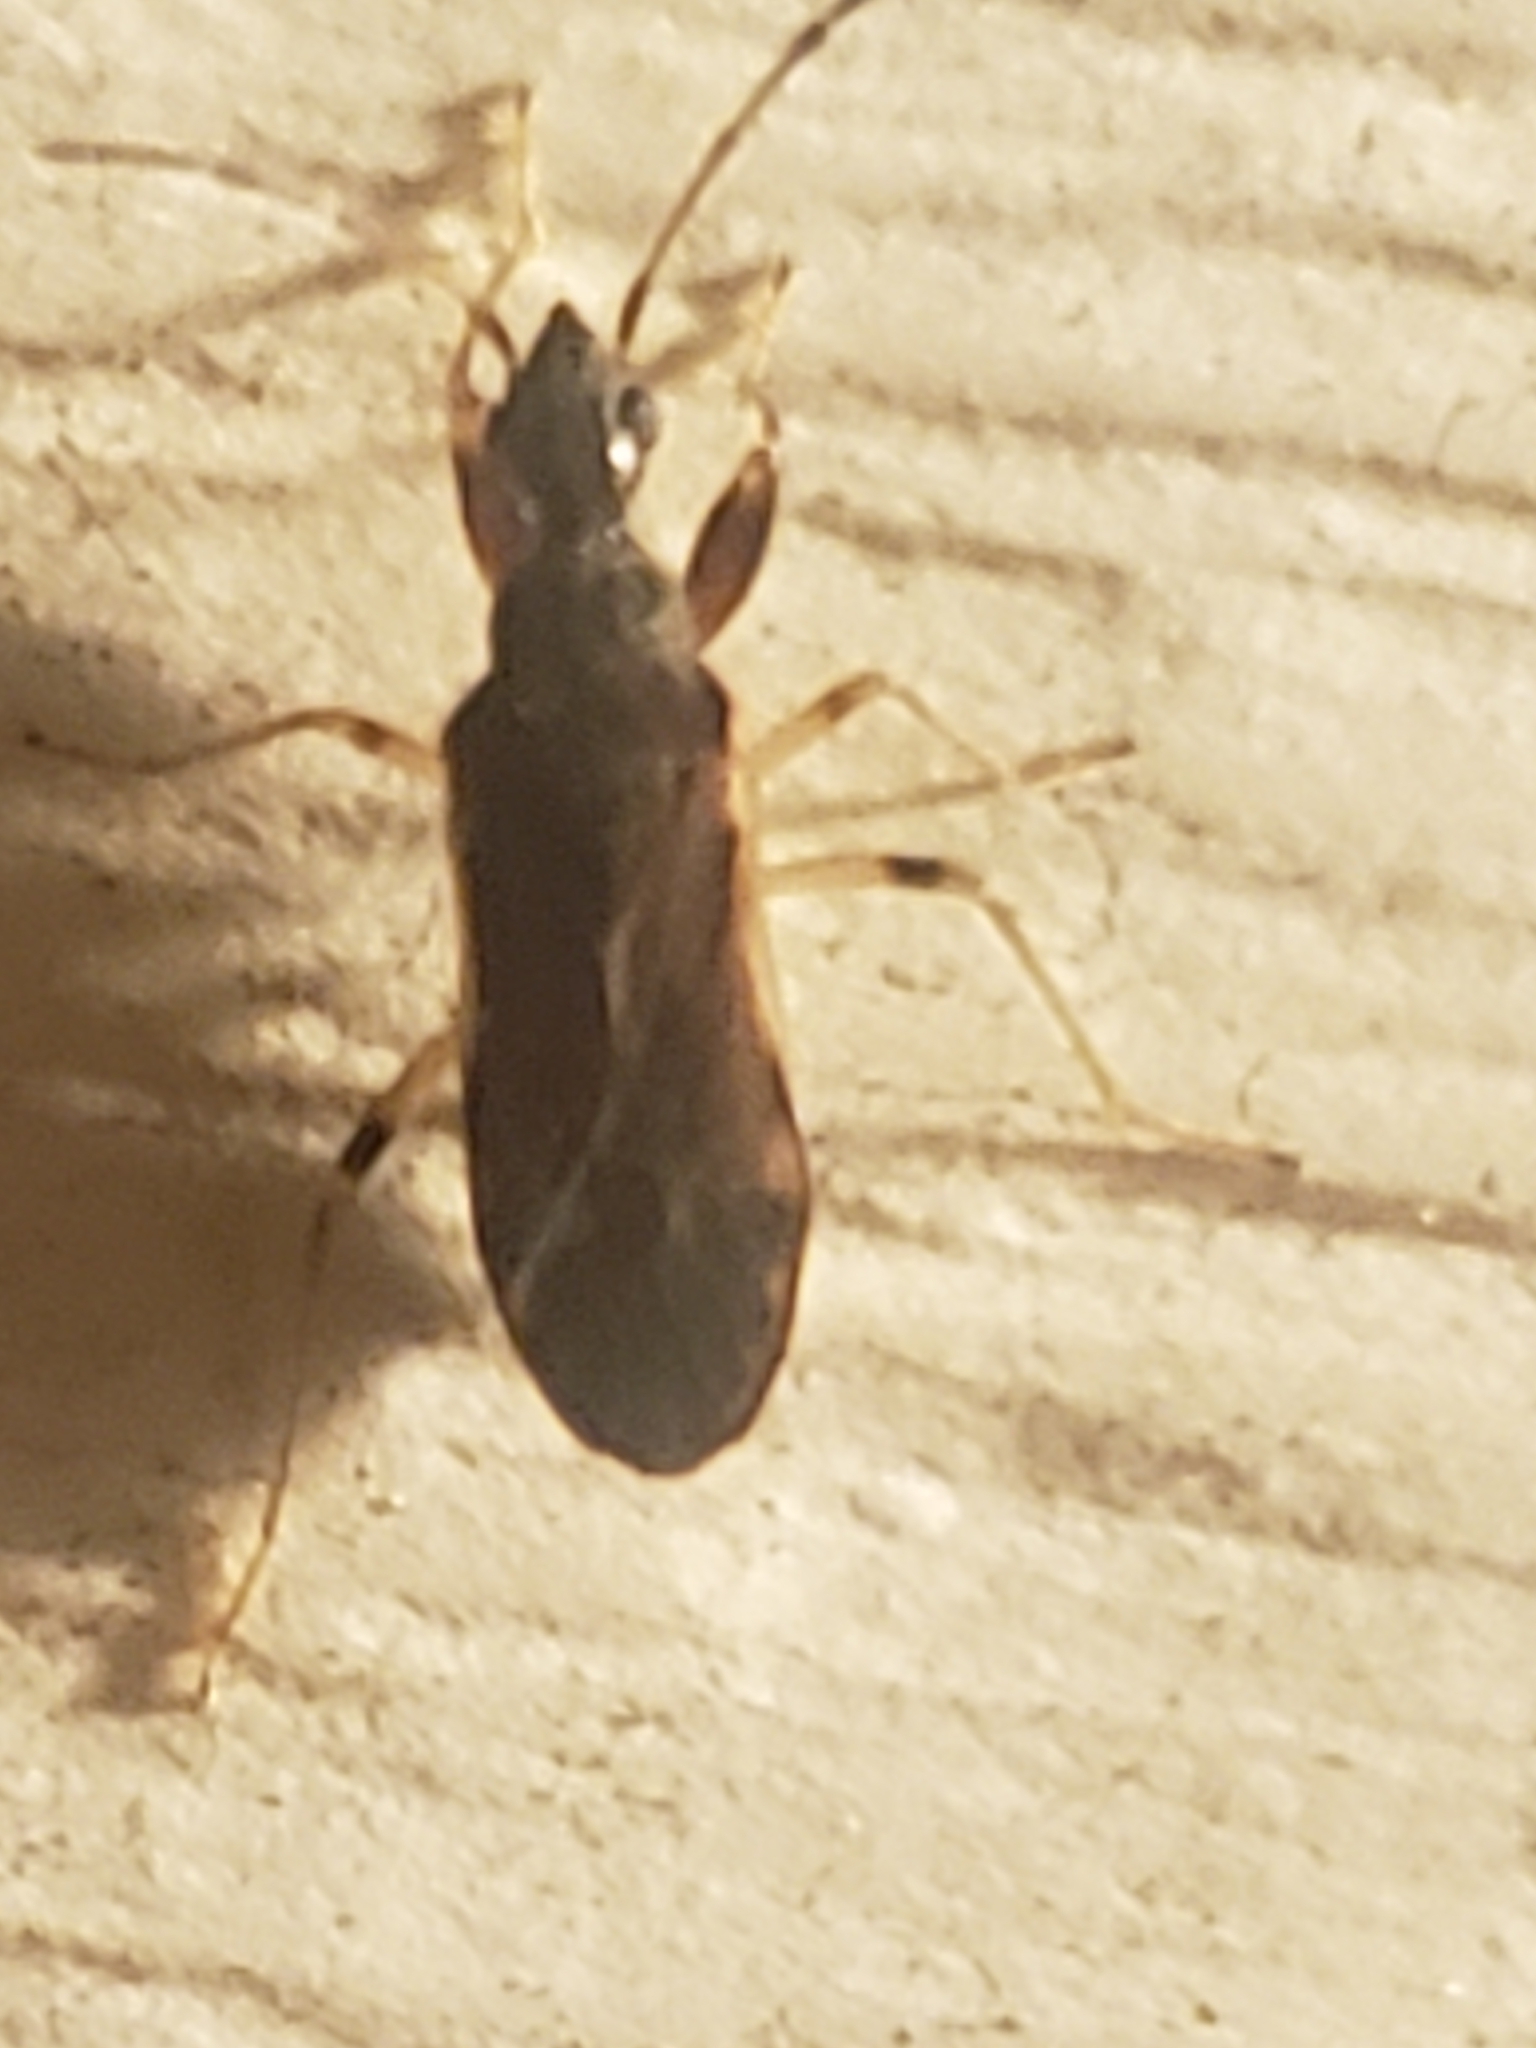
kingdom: Animalia
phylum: Arthropoda
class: Insecta
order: Hemiptera
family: Rhyparochromidae
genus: Heraeus
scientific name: Heraeus plebejus
